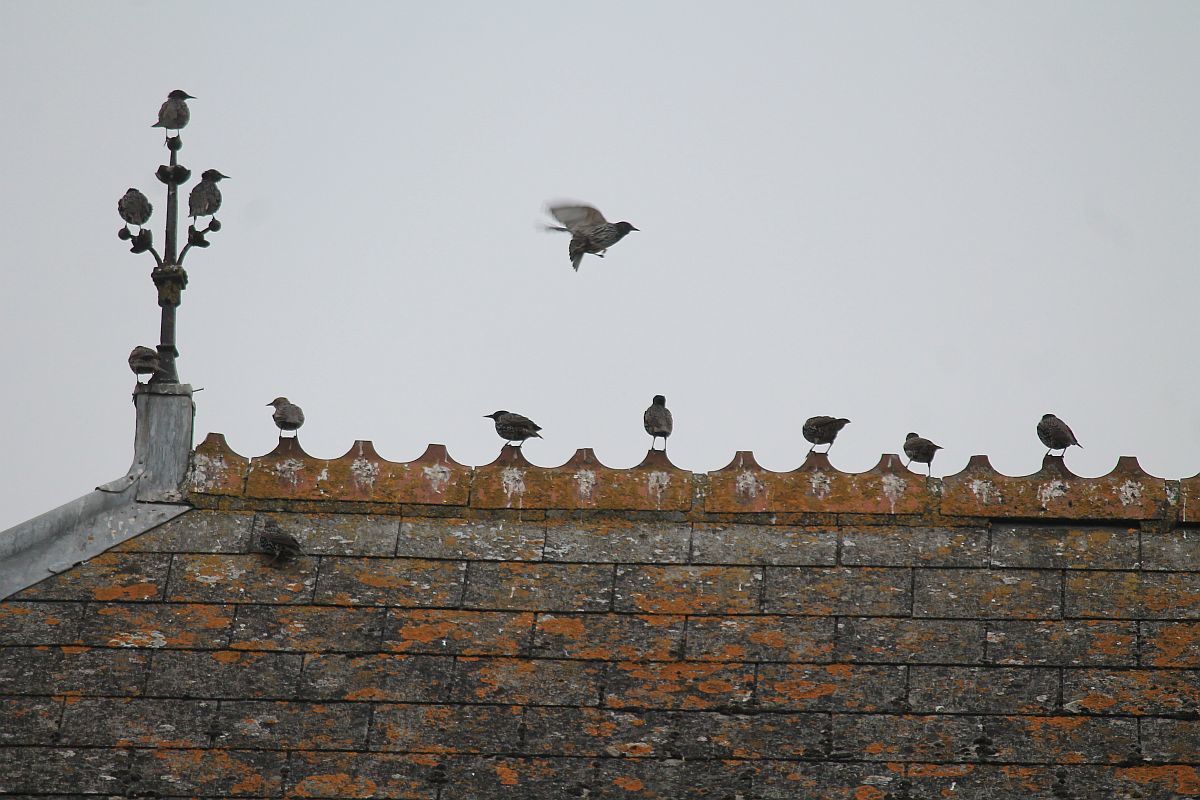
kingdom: Animalia
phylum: Chordata
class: Aves
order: Passeriformes
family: Sturnidae
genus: Sturnus
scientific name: Sturnus vulgaris
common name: Common starling
